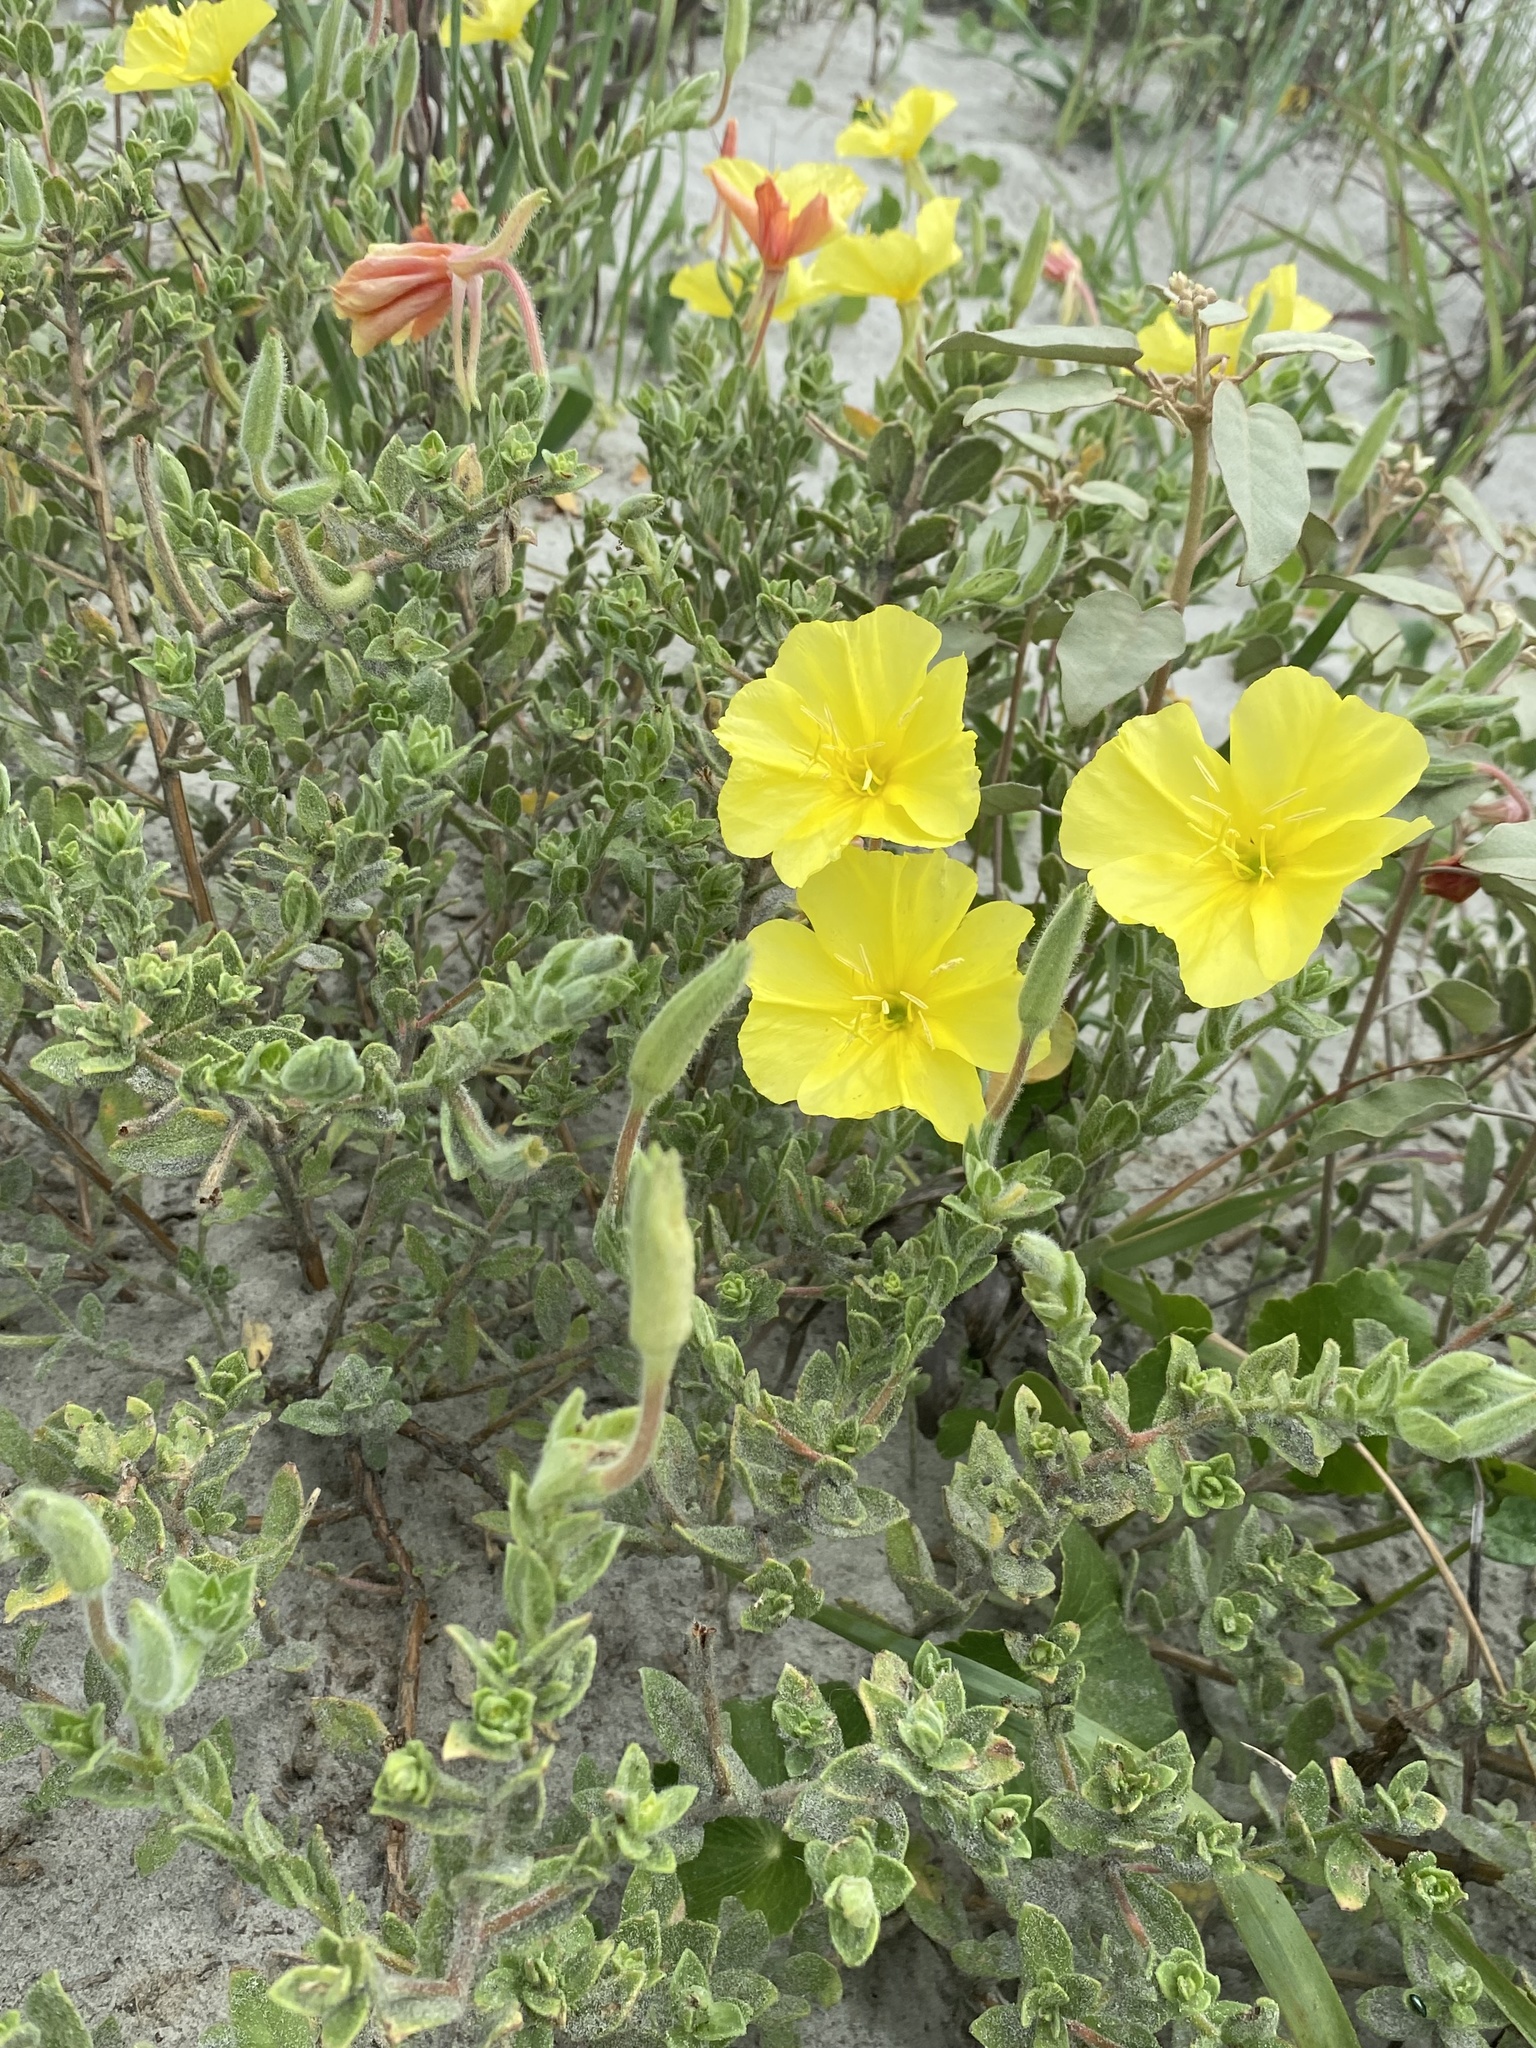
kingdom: Plantae
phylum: Tracheophyta
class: Magnoliopsida
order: Myrtales
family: Onagraceae
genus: Oenothera
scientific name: Oenothera drummondii
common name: Beach evening-primrose
